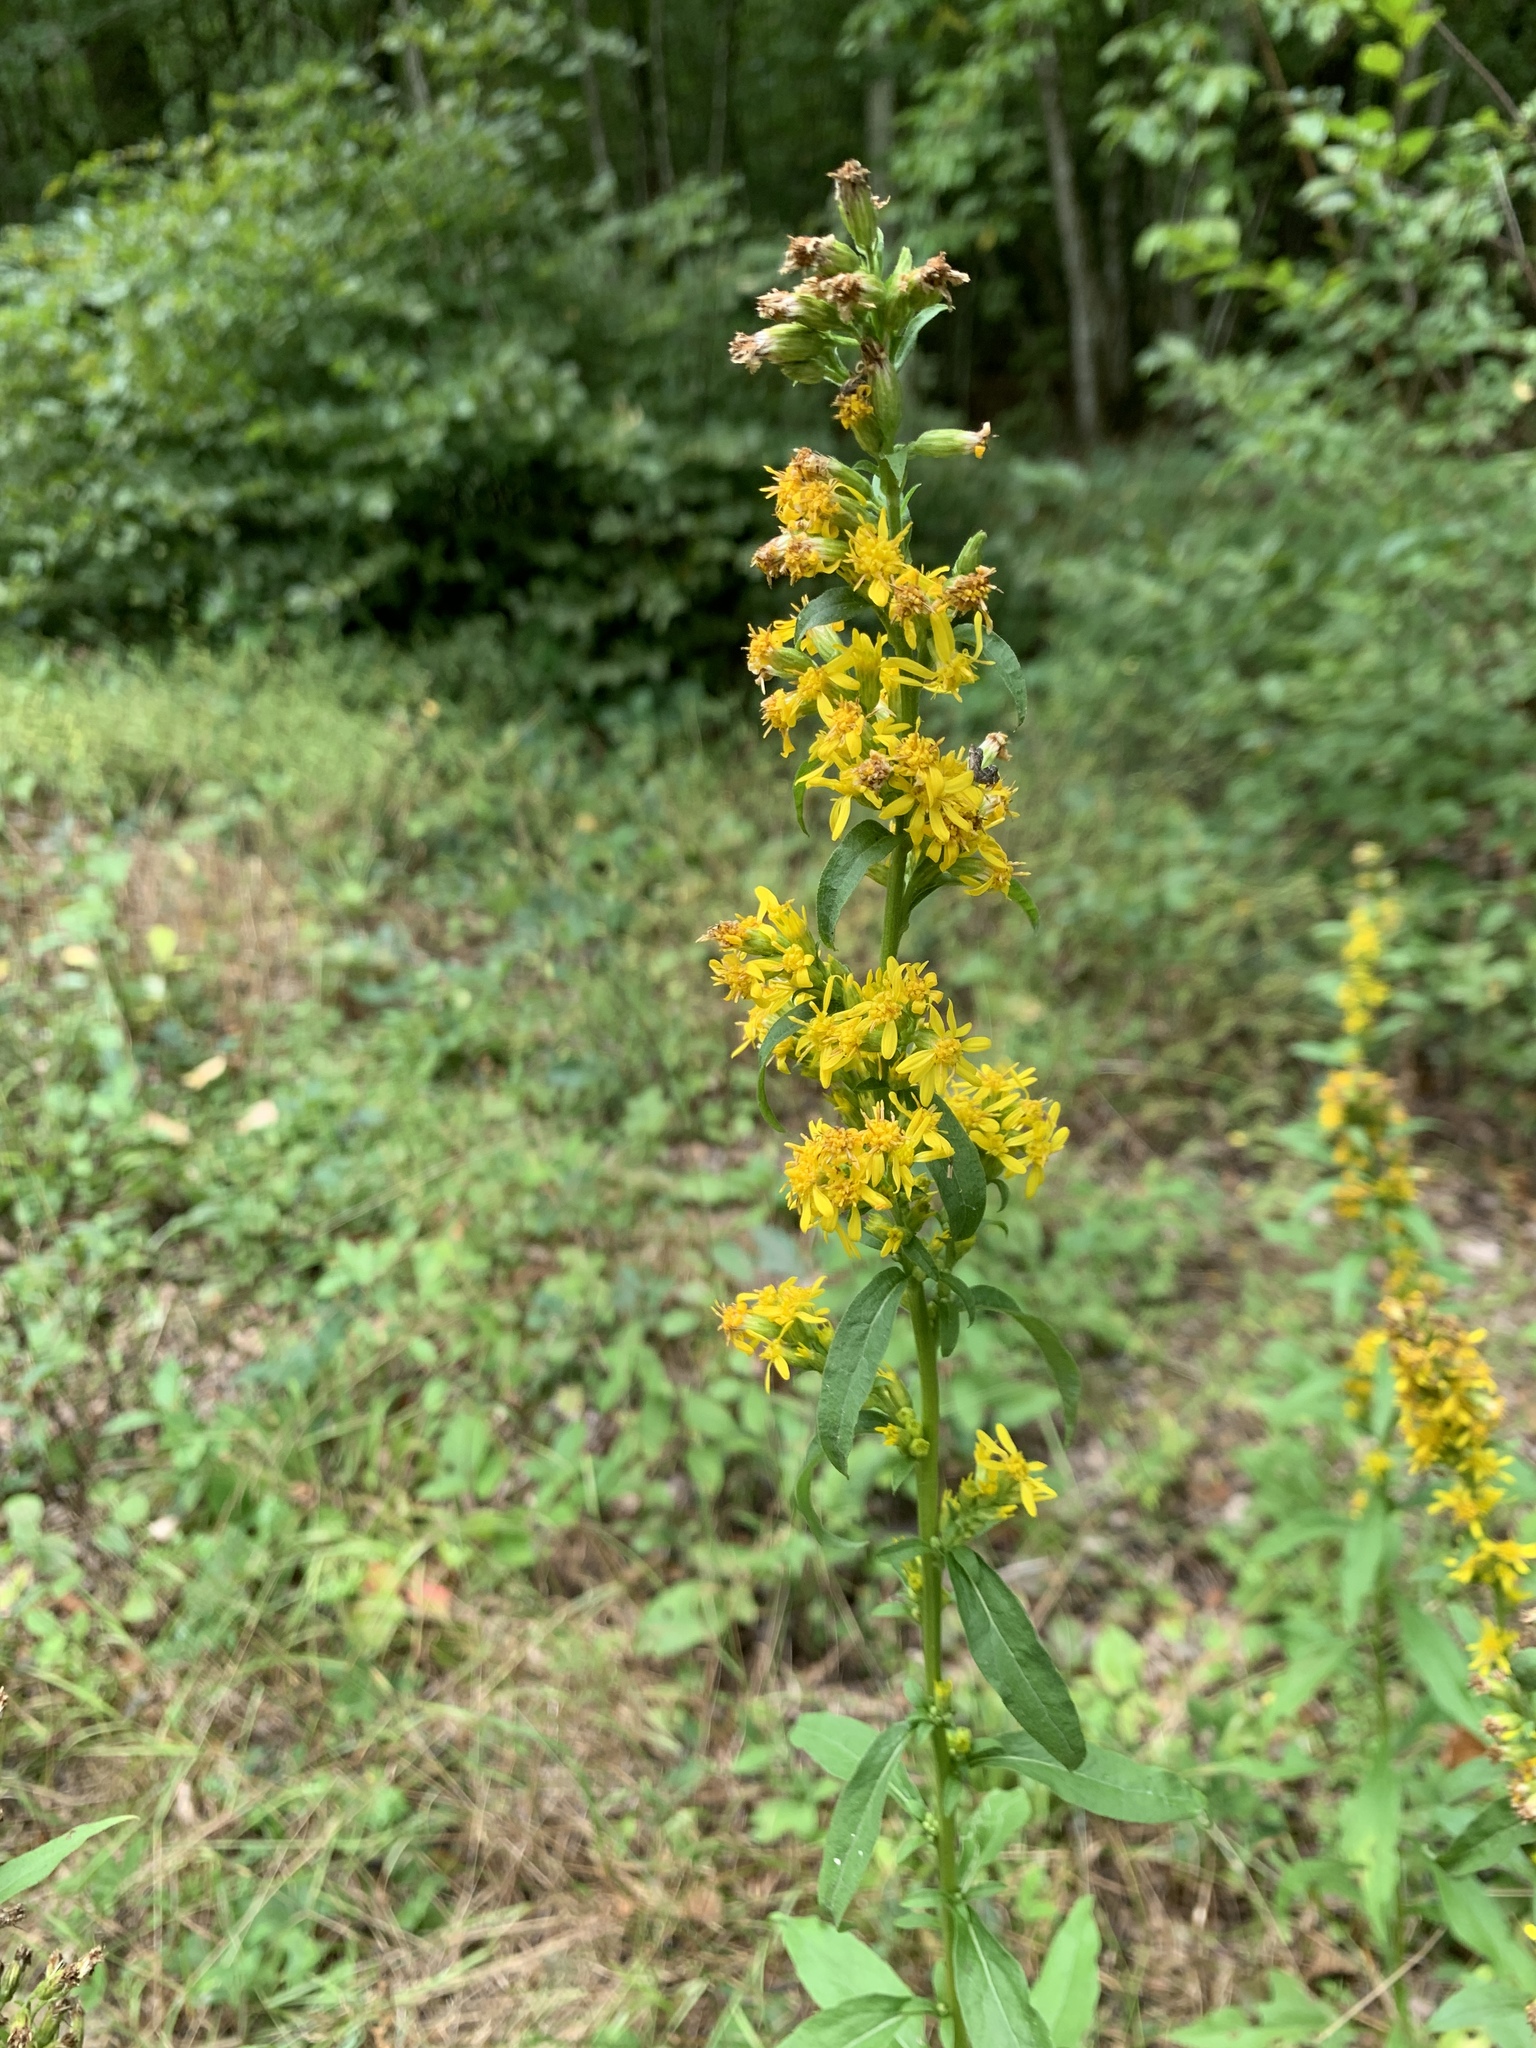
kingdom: Plantae
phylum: Tracheophyta
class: Magnoliopsida
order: Asterales
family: Asteraceae
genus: Solidago
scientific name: Solidago virgaurea
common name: Goldenrod
